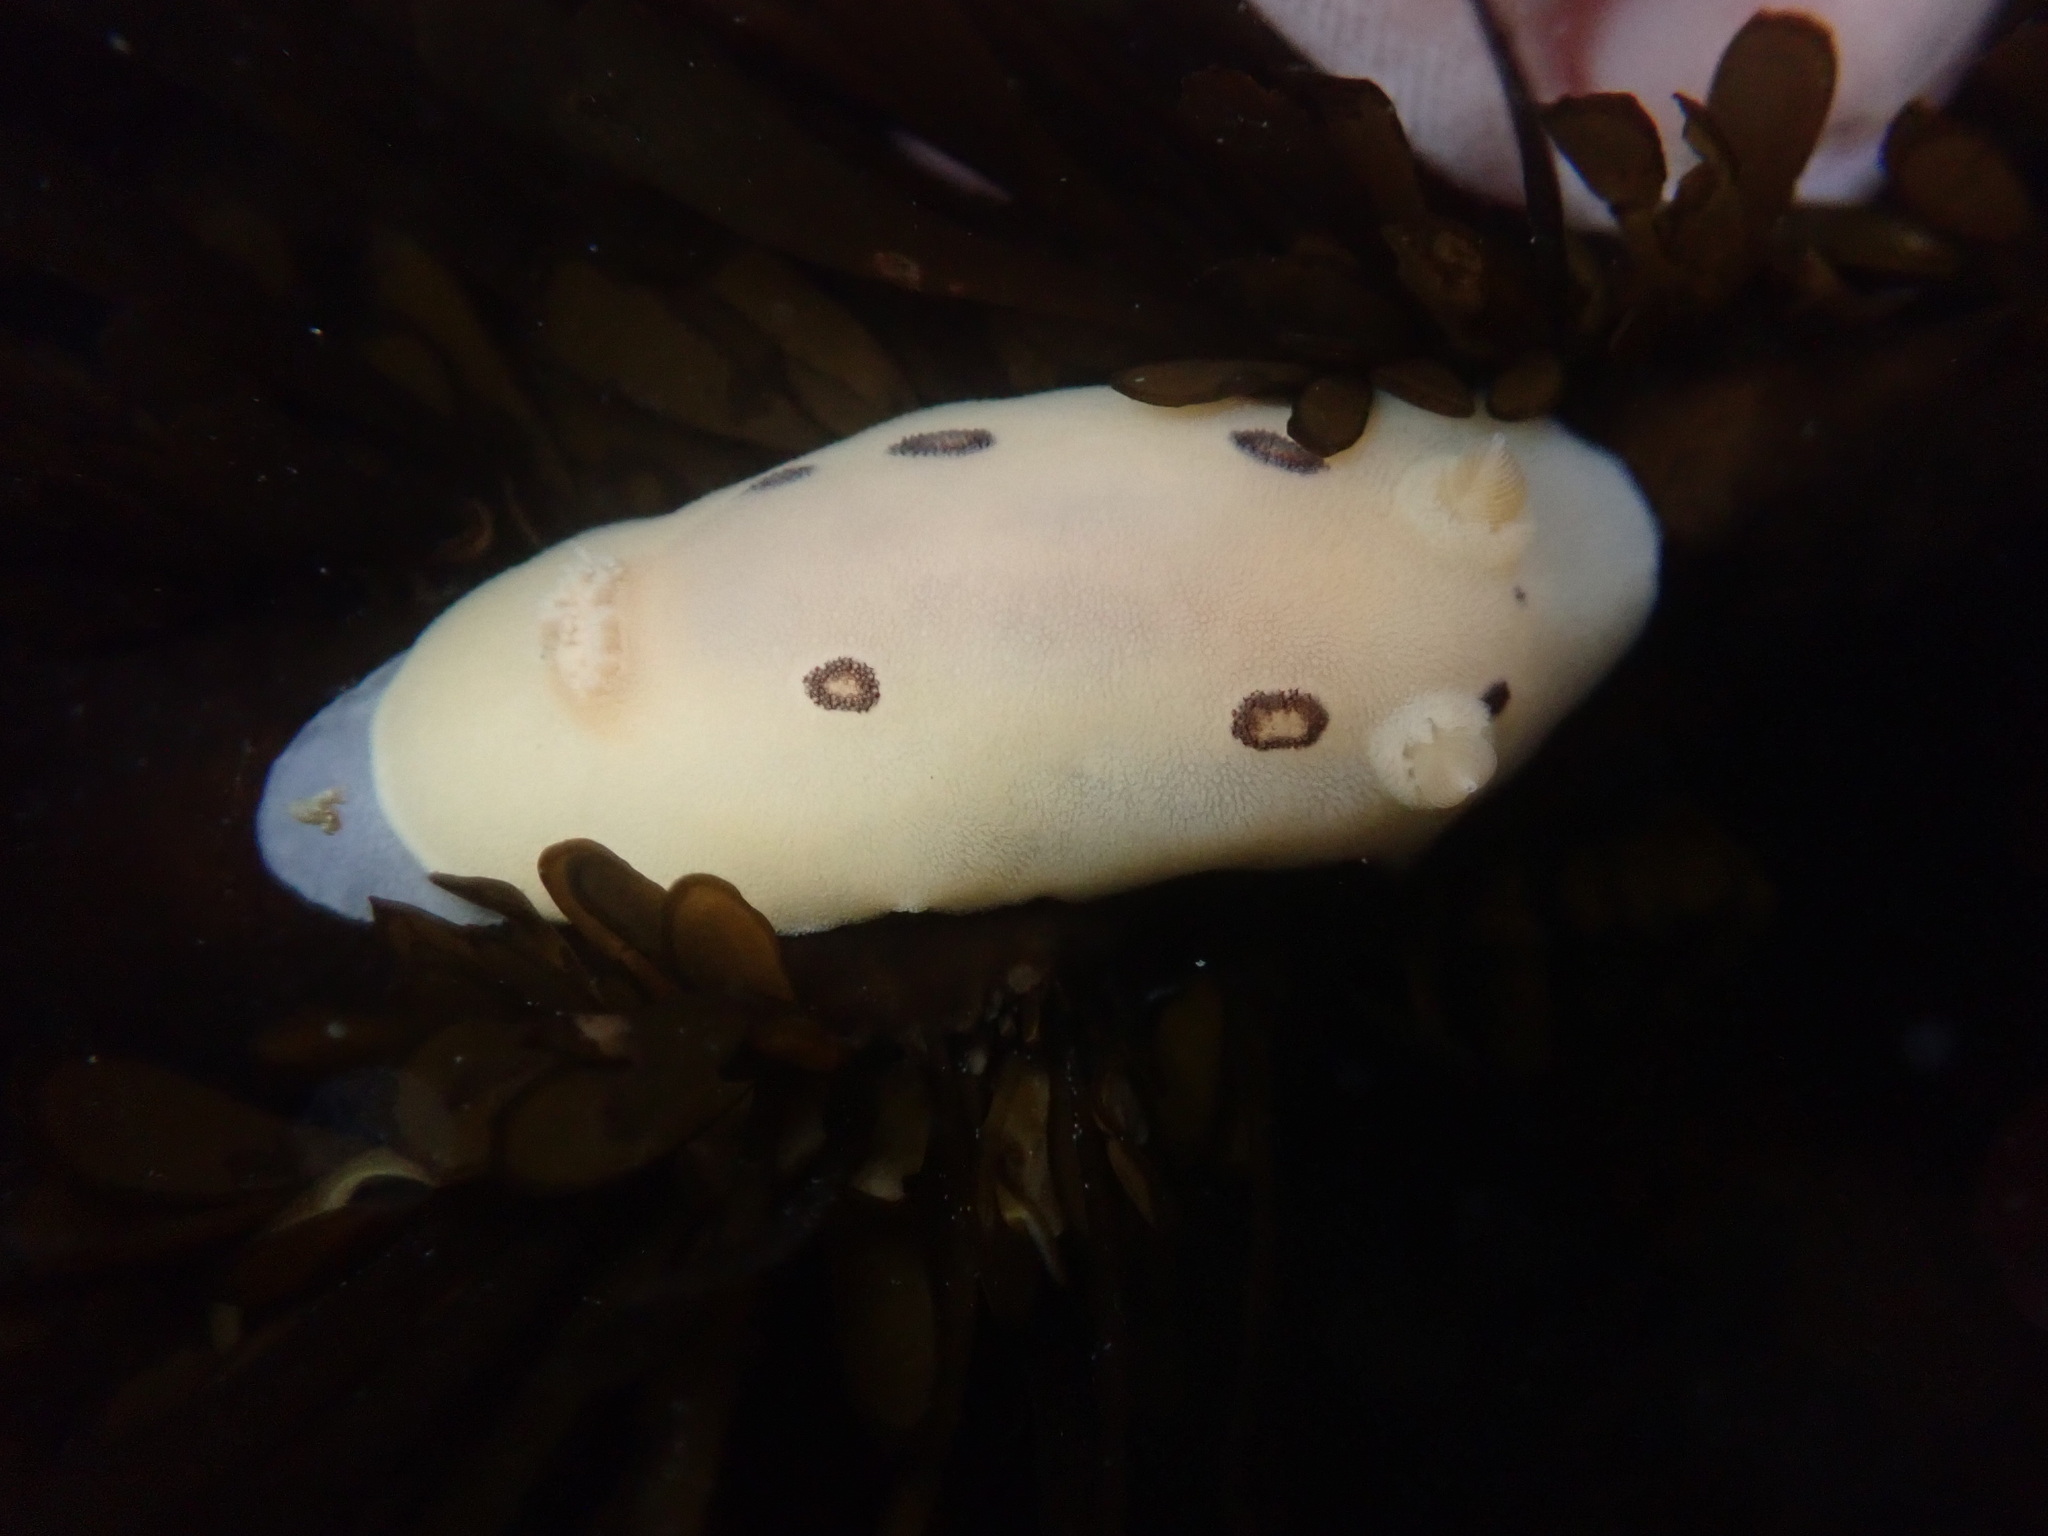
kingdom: Animalia
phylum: Mollusca
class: Gastropoda
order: Nudibranchia
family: Discodorididae
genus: Diaulula
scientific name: Diaulula sandiegensis
